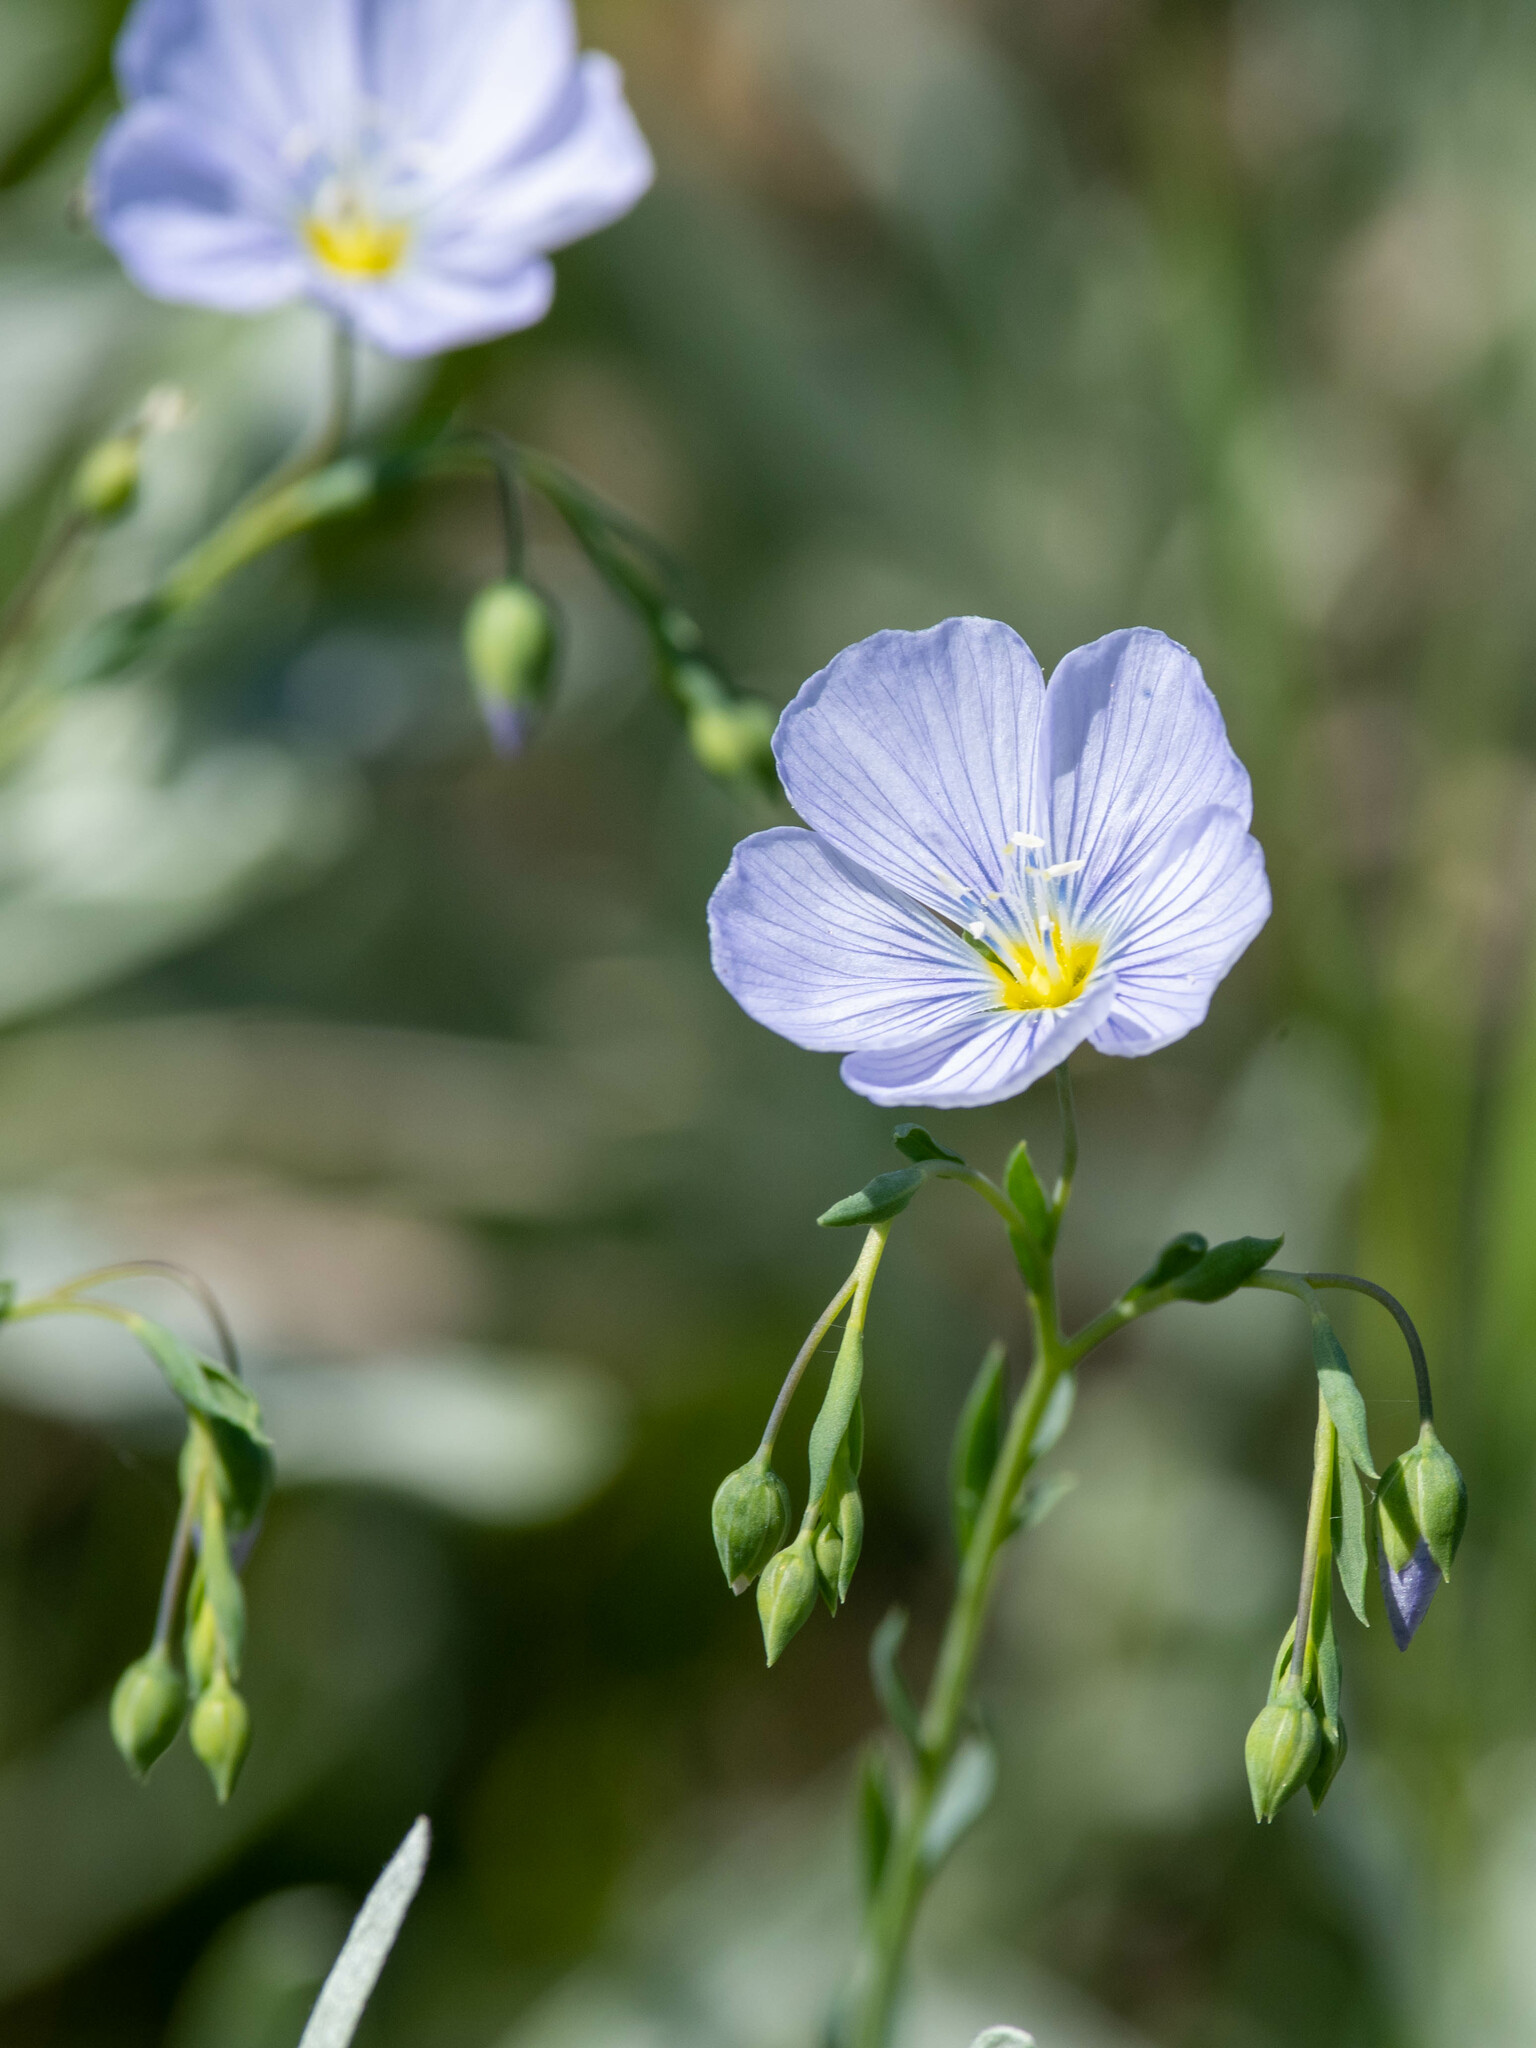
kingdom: Plantae
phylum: Tracheophyta
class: Magnoliopsida
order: Malpighiales
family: Linaceae
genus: Linum
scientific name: Linum lewisii
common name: Prairie flax
